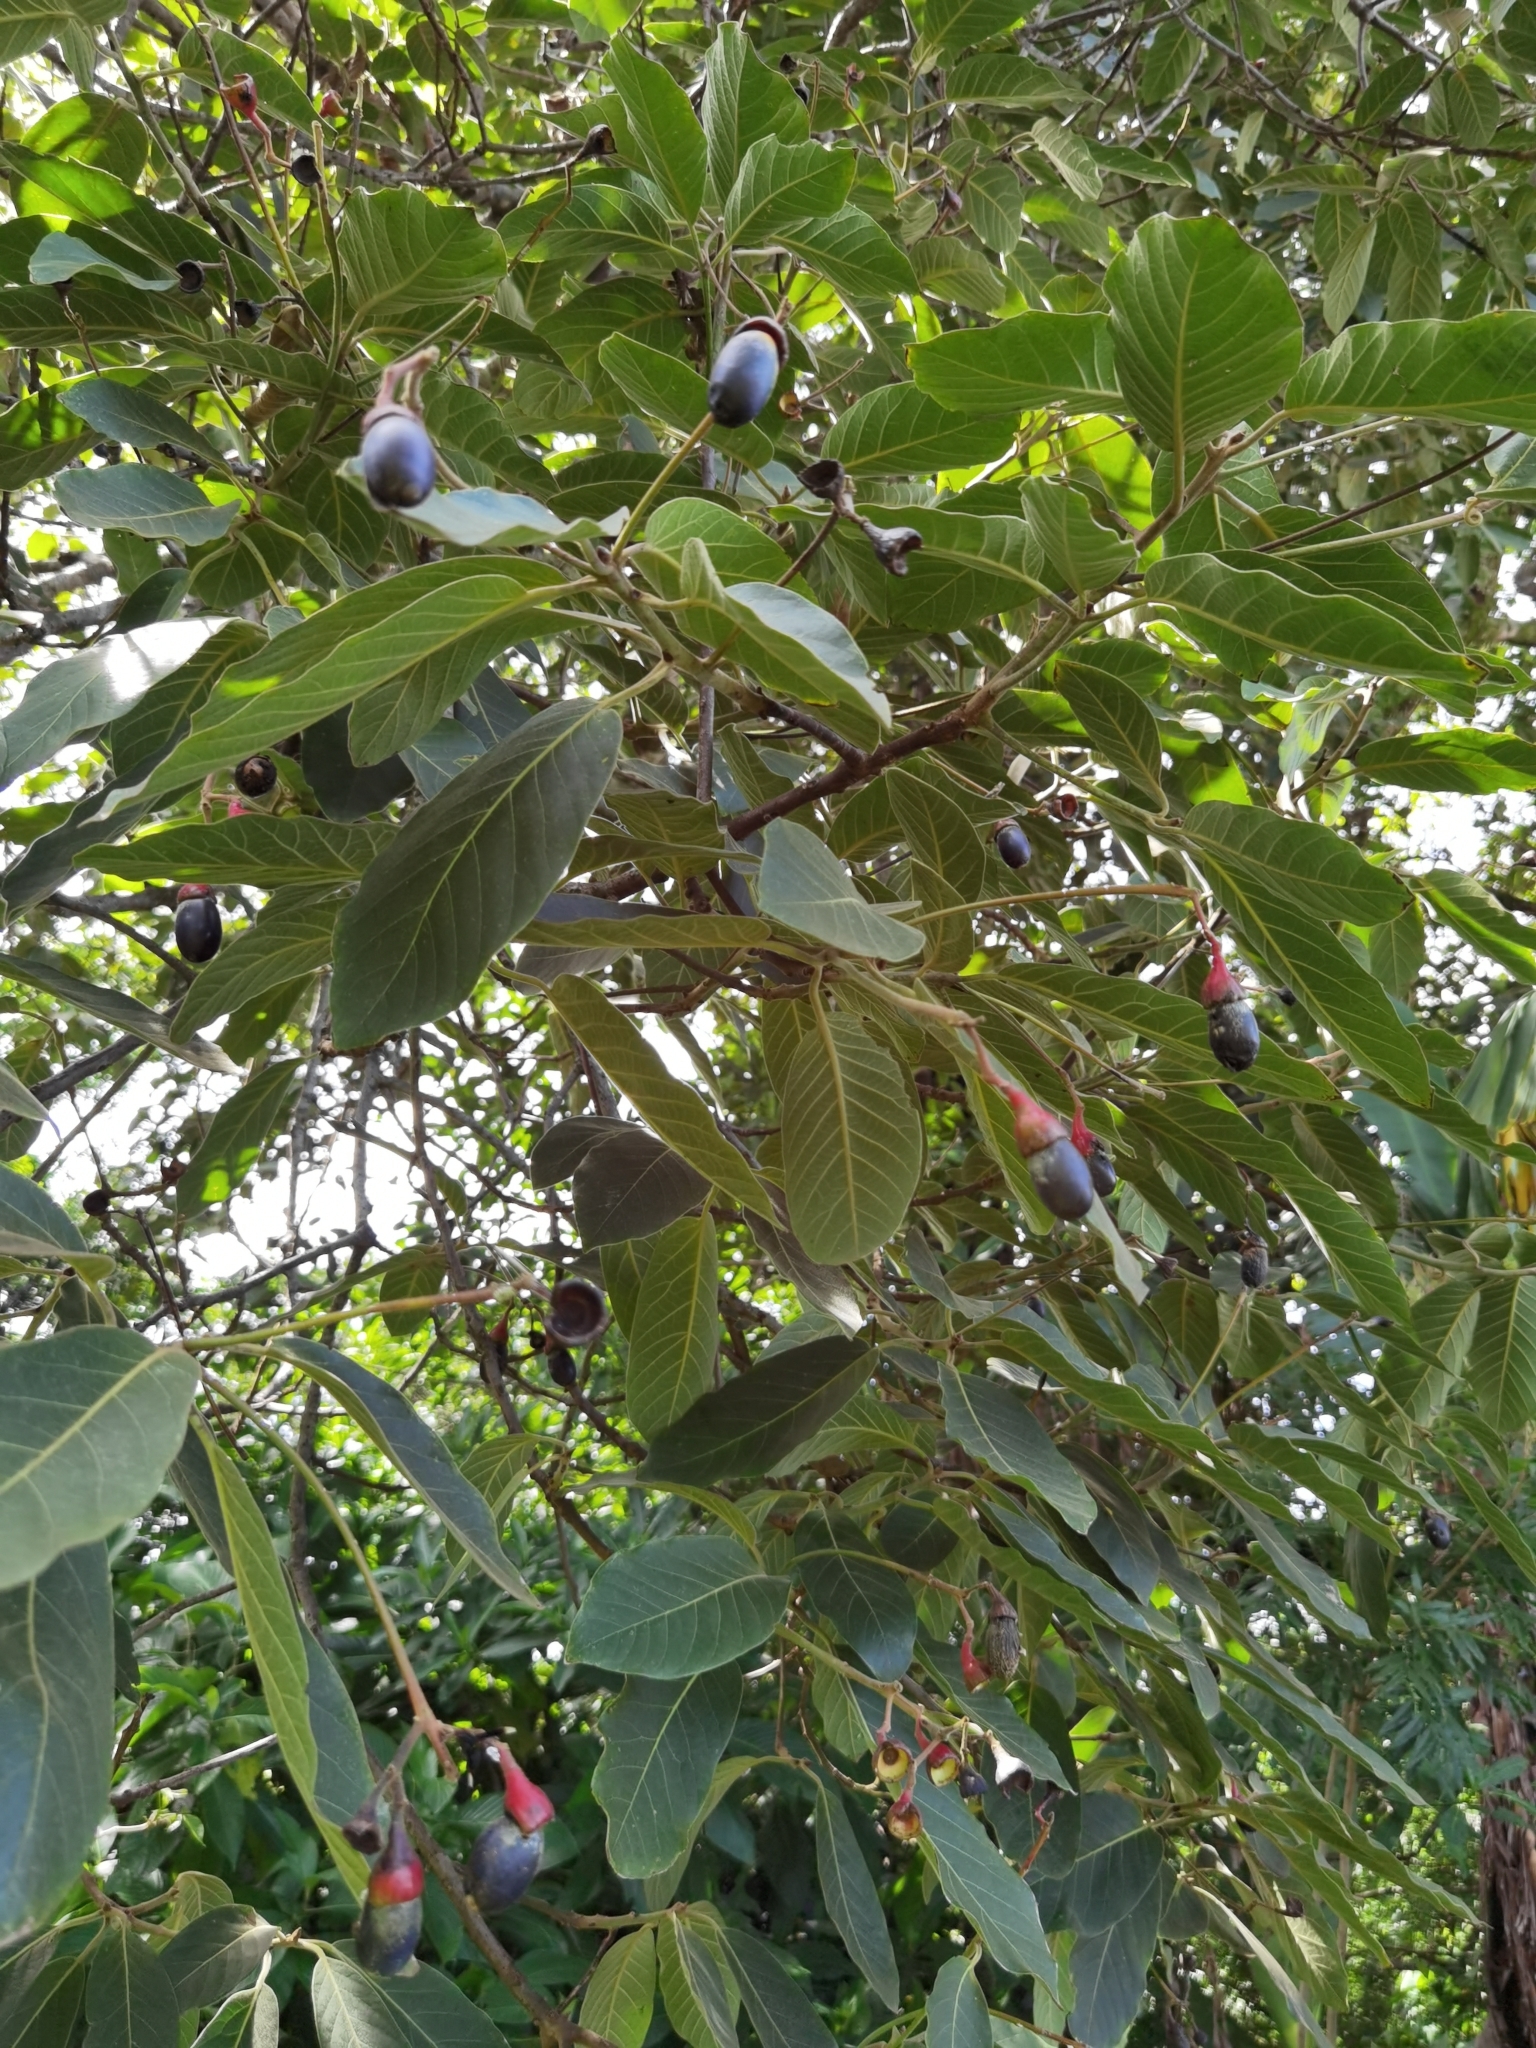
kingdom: Plantae
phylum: Tracheophyta
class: Magnoliopsida
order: Laurales
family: Lauraceae
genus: Ocotea
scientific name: Ocotea sinuata
